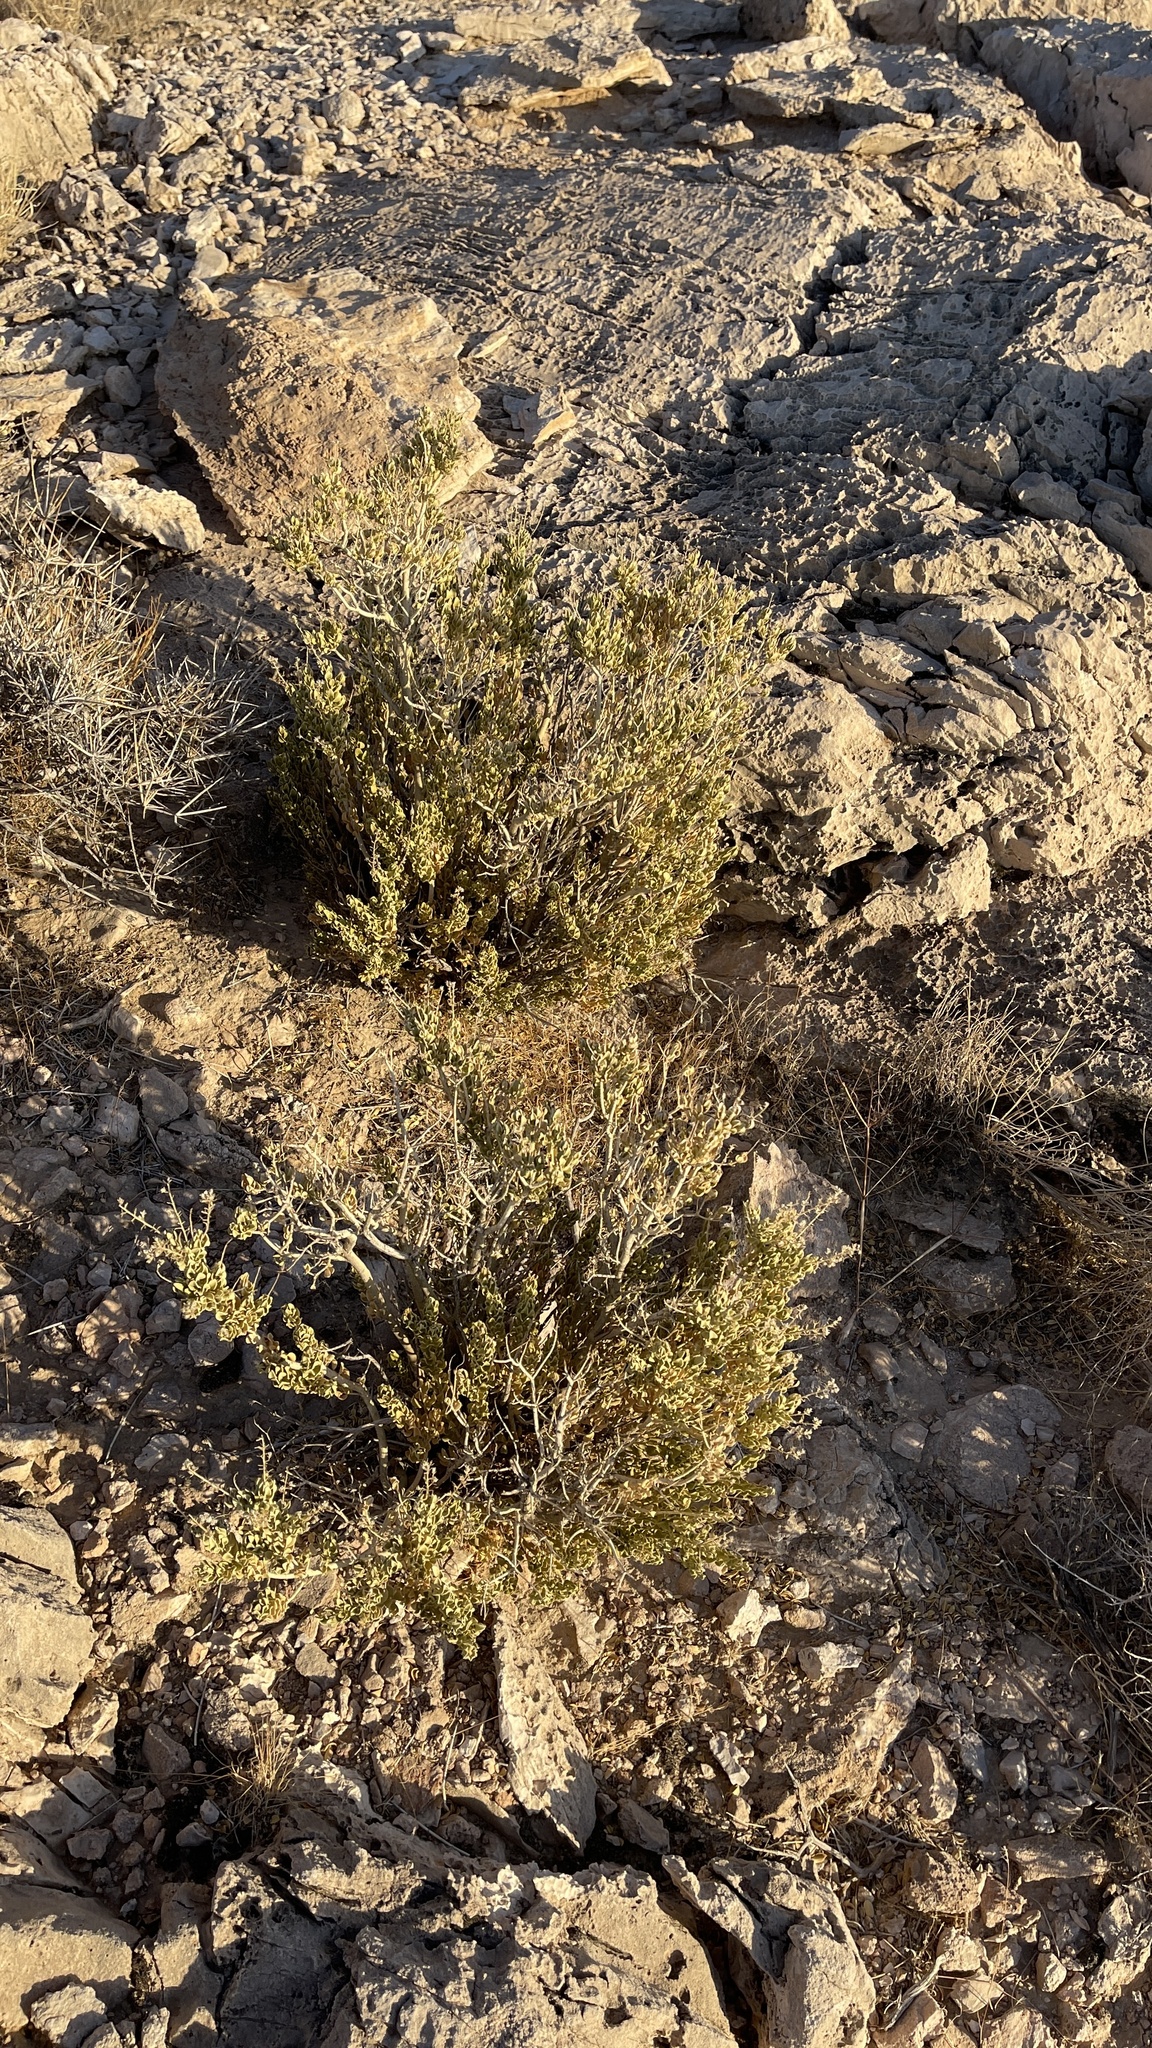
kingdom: Plantae
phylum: Tracheophyta
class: Magnoliopsida
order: Celastrales
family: Celastraceae
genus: Mortonia
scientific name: Mortonia utahensis
